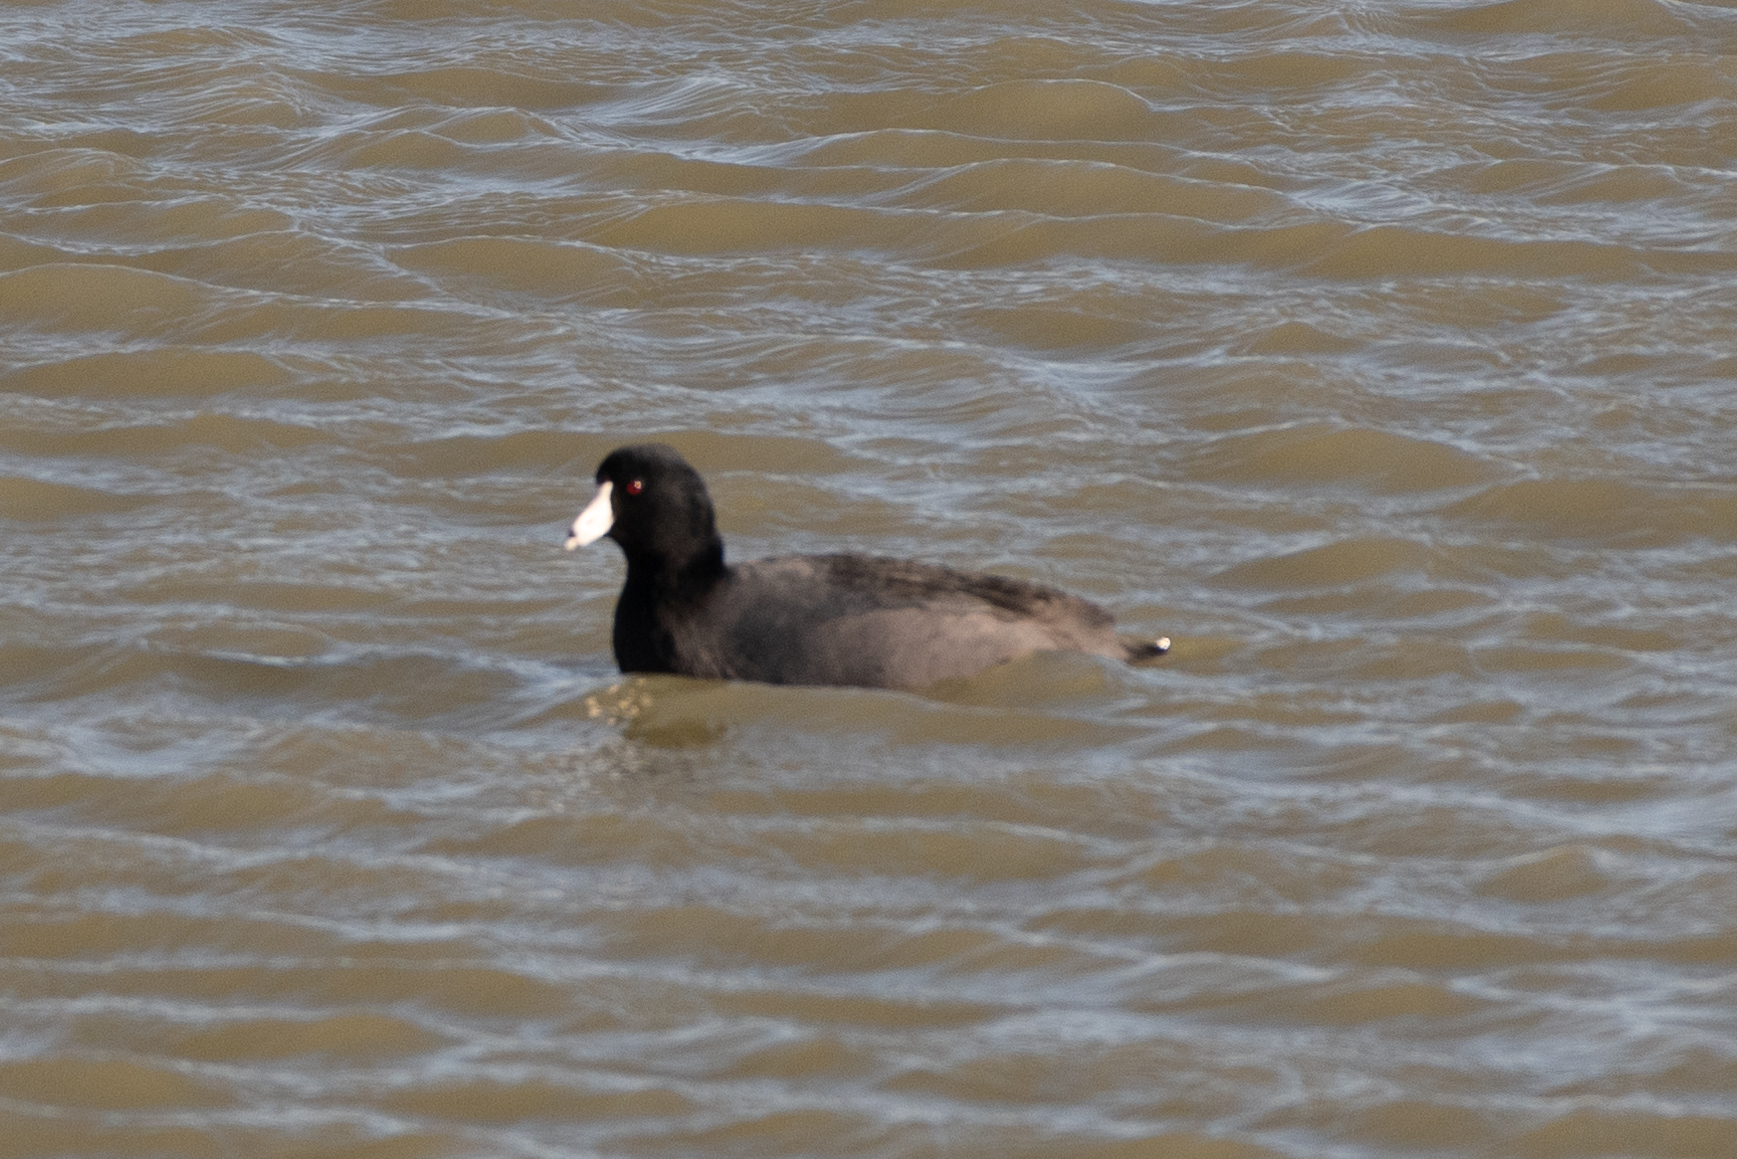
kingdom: Animalia
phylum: Chordata
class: Aves
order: Gruiformes
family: Rallidae
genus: Fulica
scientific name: Fulica americana
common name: American coot
